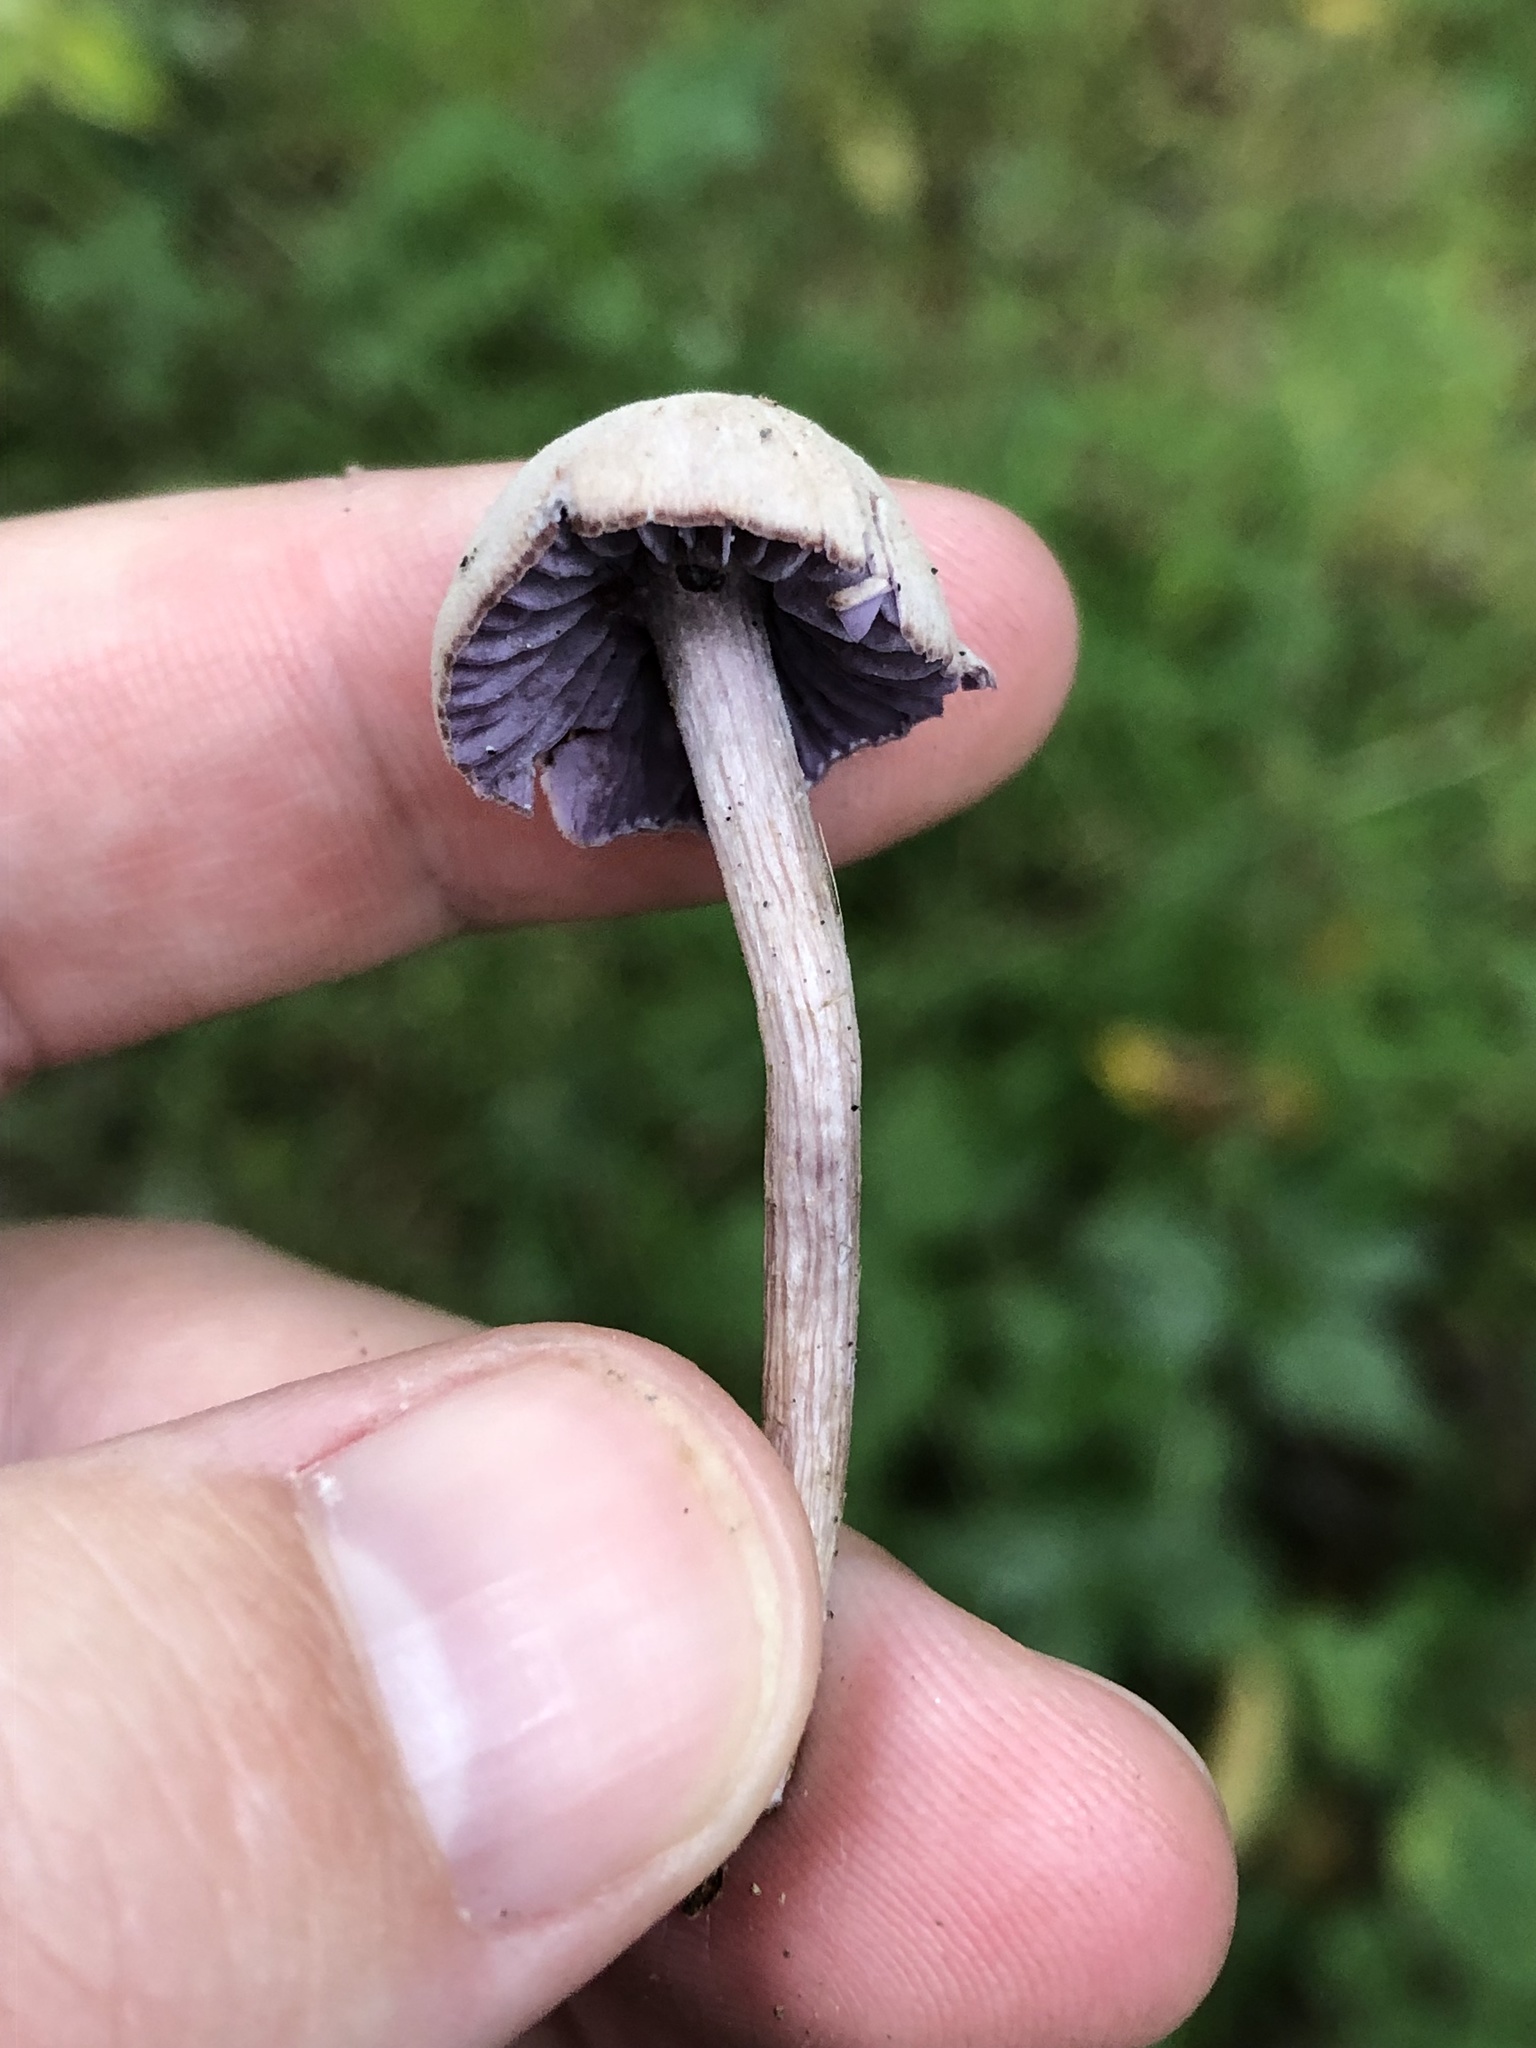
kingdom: Fungi
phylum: Basidiomycota
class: Agaricomycetes
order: Agaricales
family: Hydnangiaceae
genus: Laccaria
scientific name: Laccaria amethystina
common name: Amethyst deceiver
